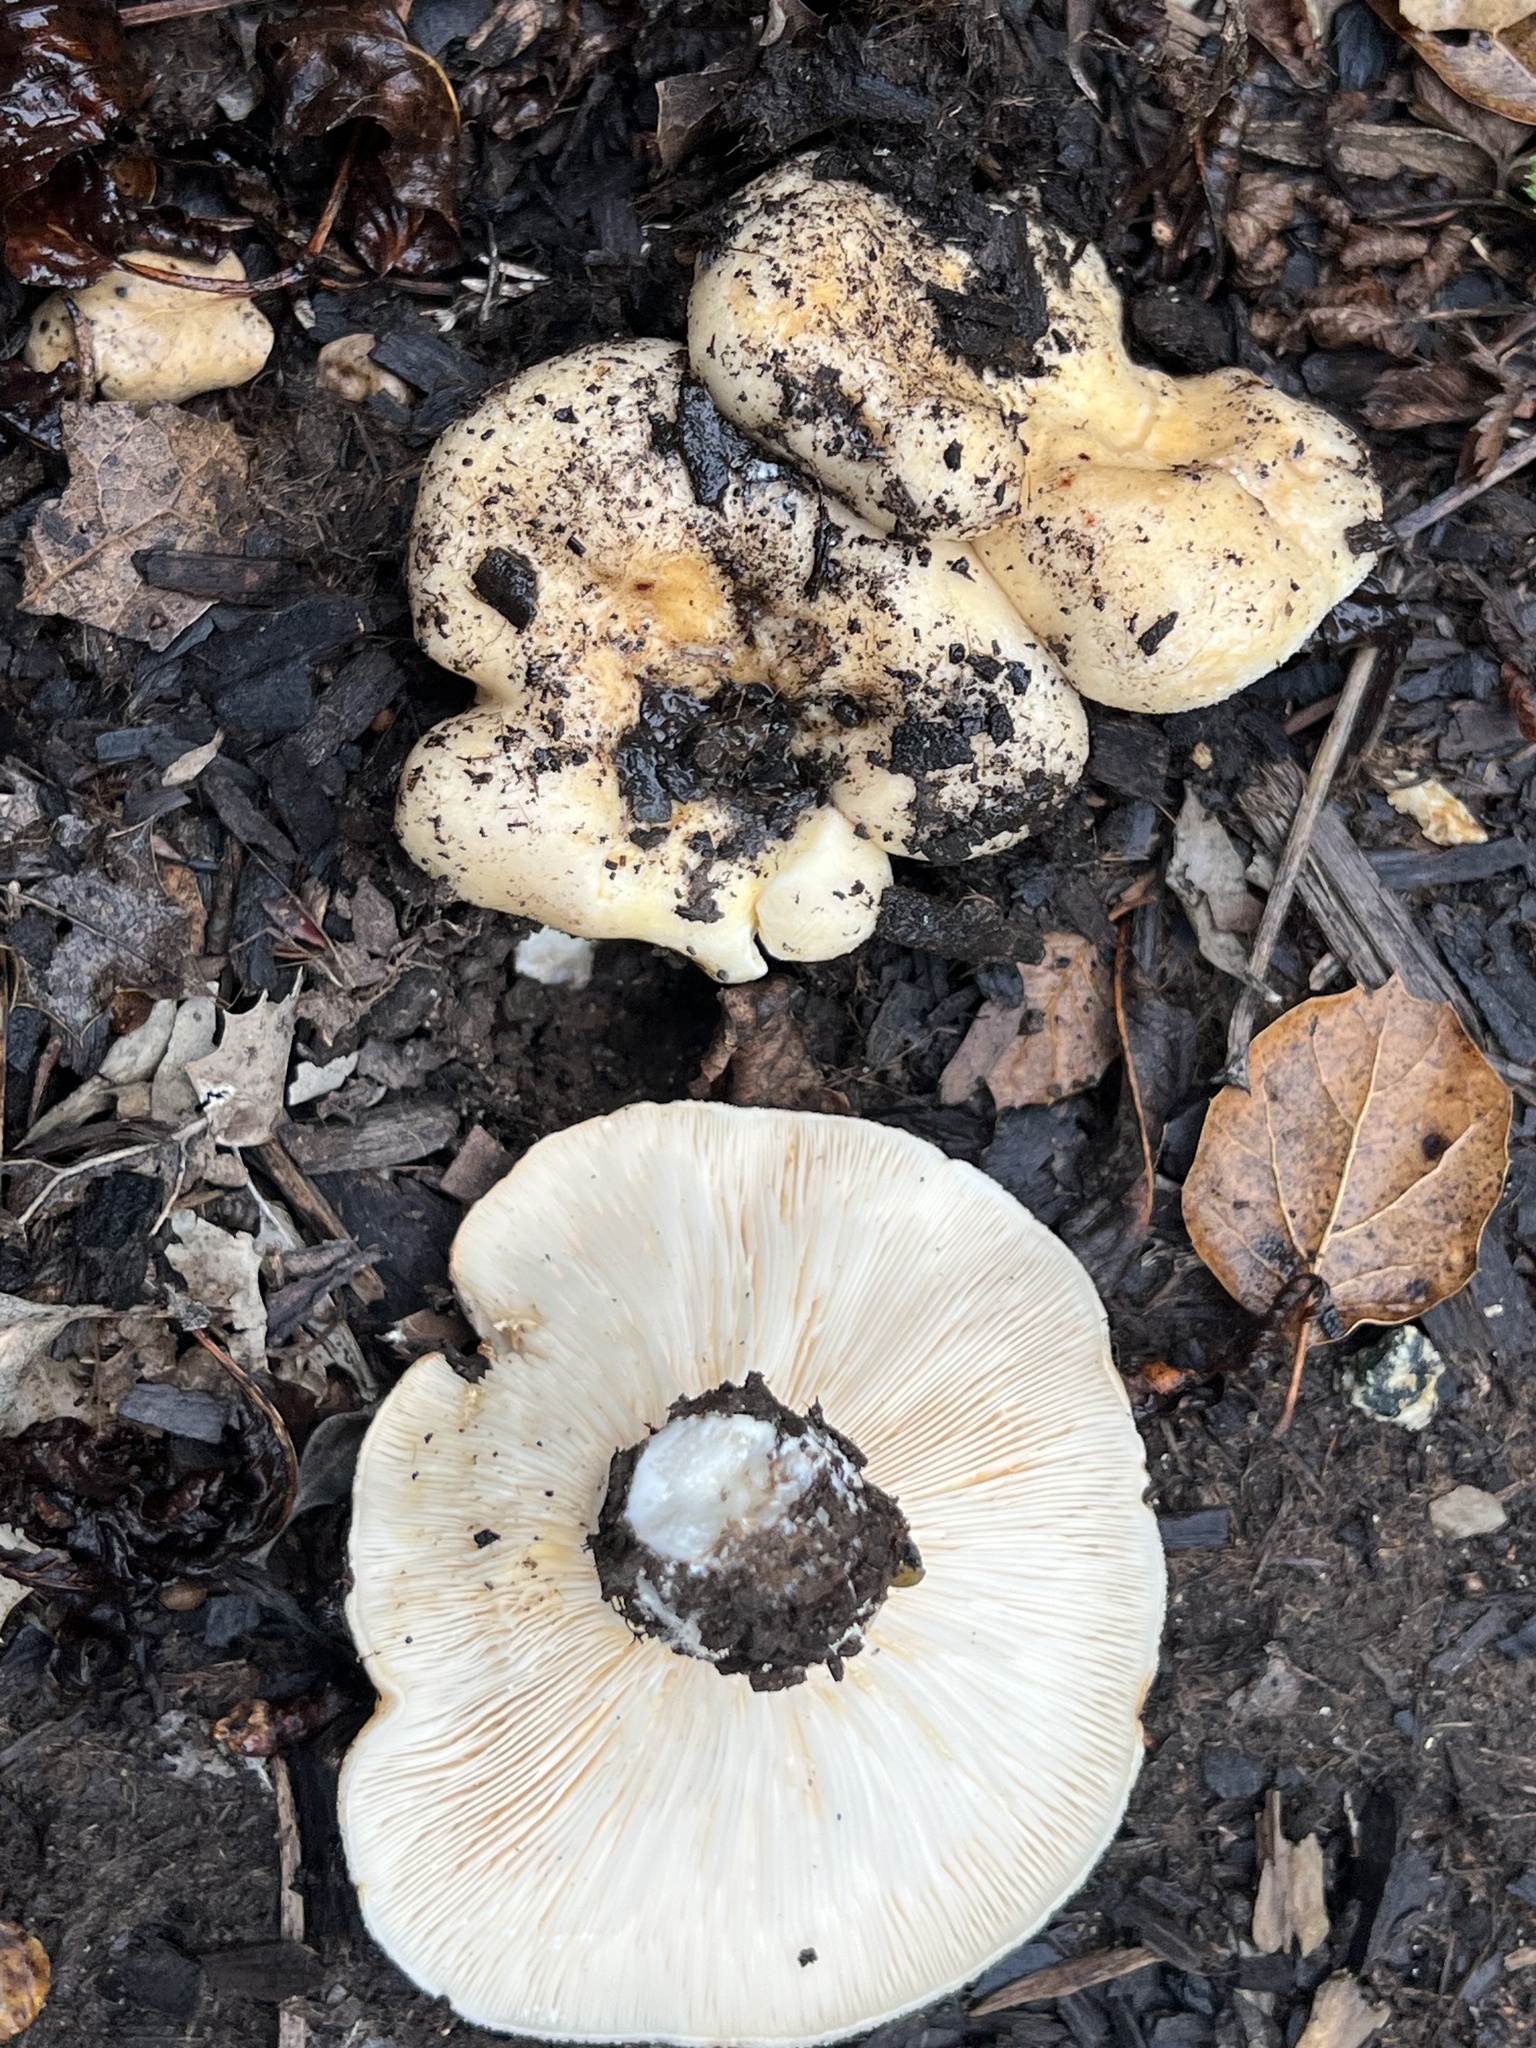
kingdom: Fungi
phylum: Basidiomycota
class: Agaricomycetes
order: Russulales
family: Russulaceae
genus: Lactarius
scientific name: Lactarius alnicola
